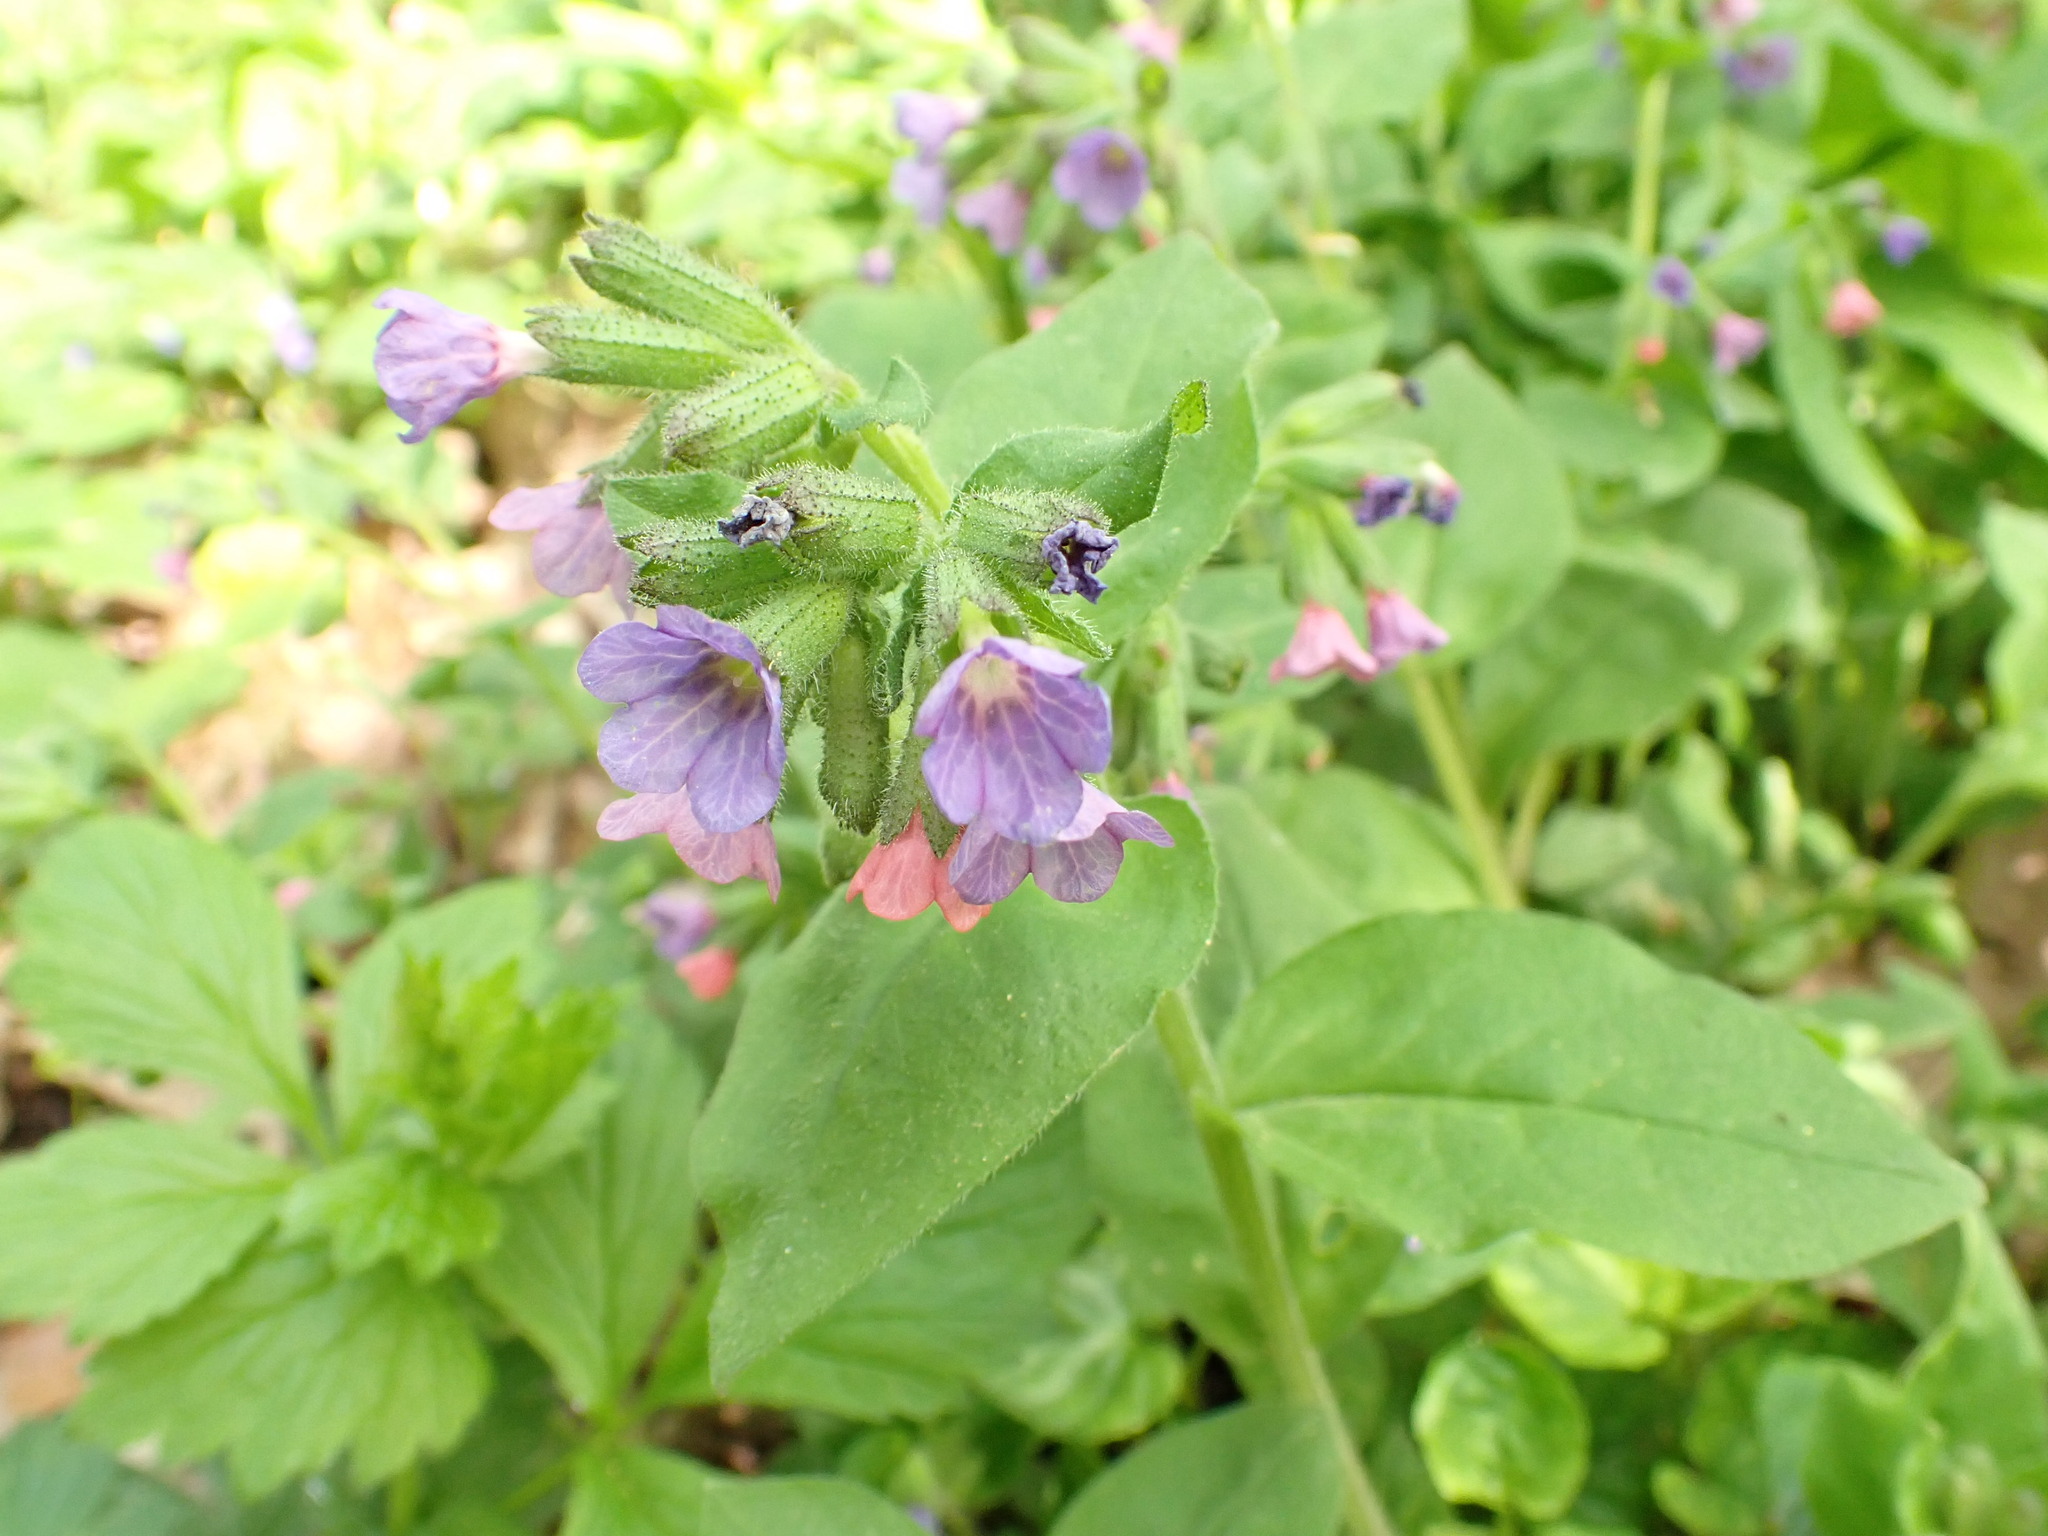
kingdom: Plantae
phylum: Tracheophyta
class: Magnoliopsida
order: Boraginales
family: Boraginaceae
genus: Pulmonaria
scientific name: Pulmonaria obscura
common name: Suffolk lungwort
